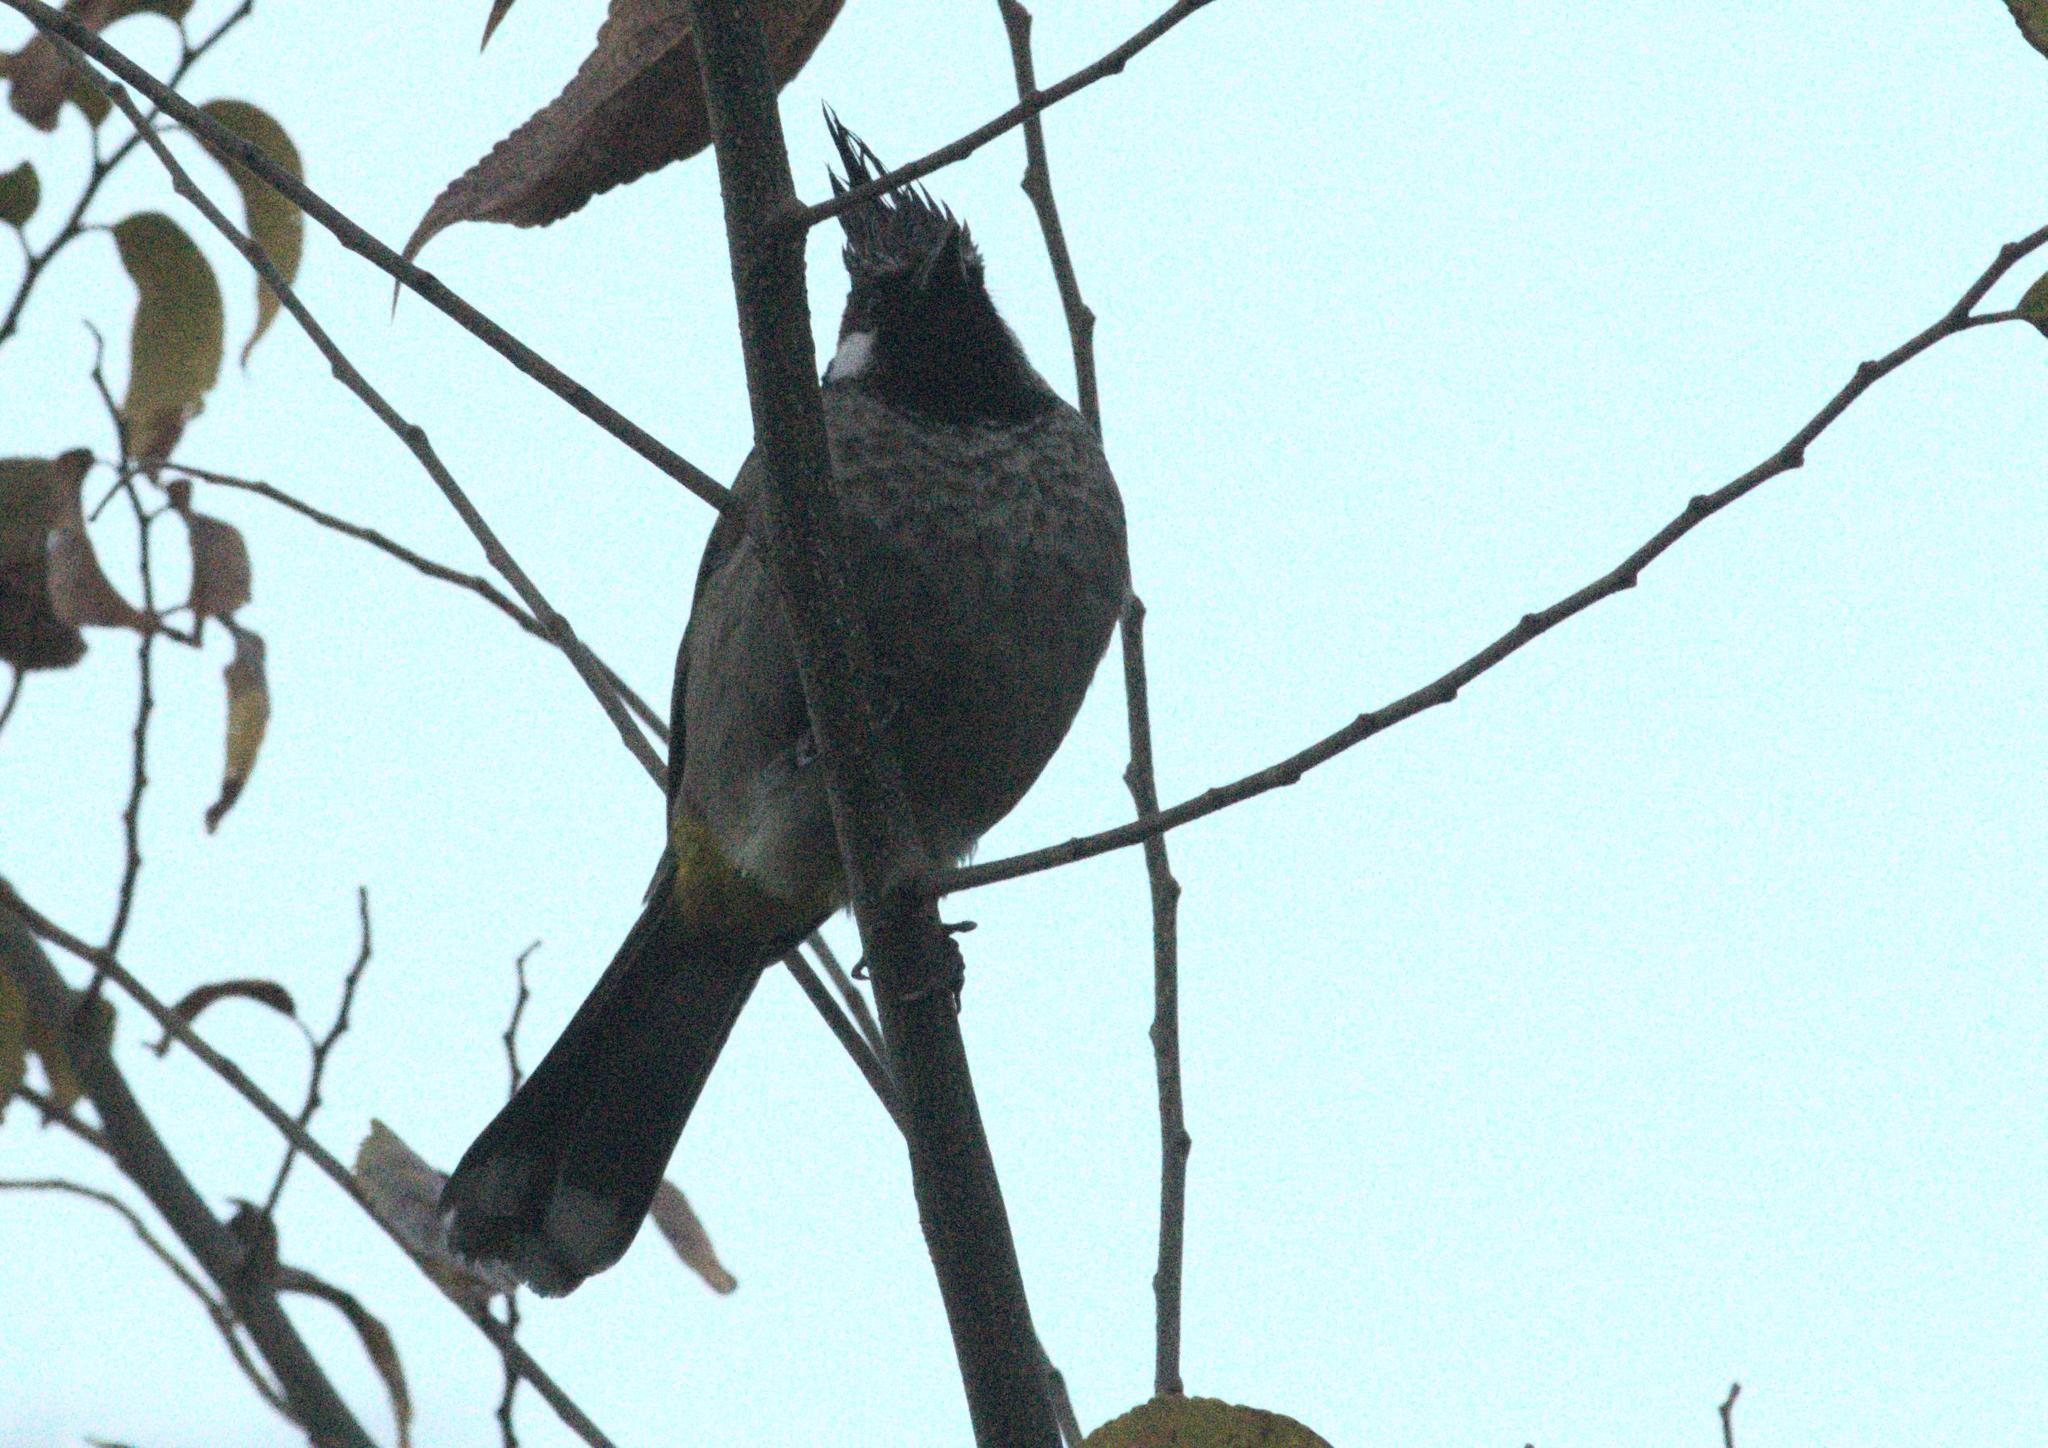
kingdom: Animalia
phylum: Chordata
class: Aves
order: Passeriformes
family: Pycnonotidae
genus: Pycnonotus
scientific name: Pycnonotus leucogenys
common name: Himalayan bulbul
